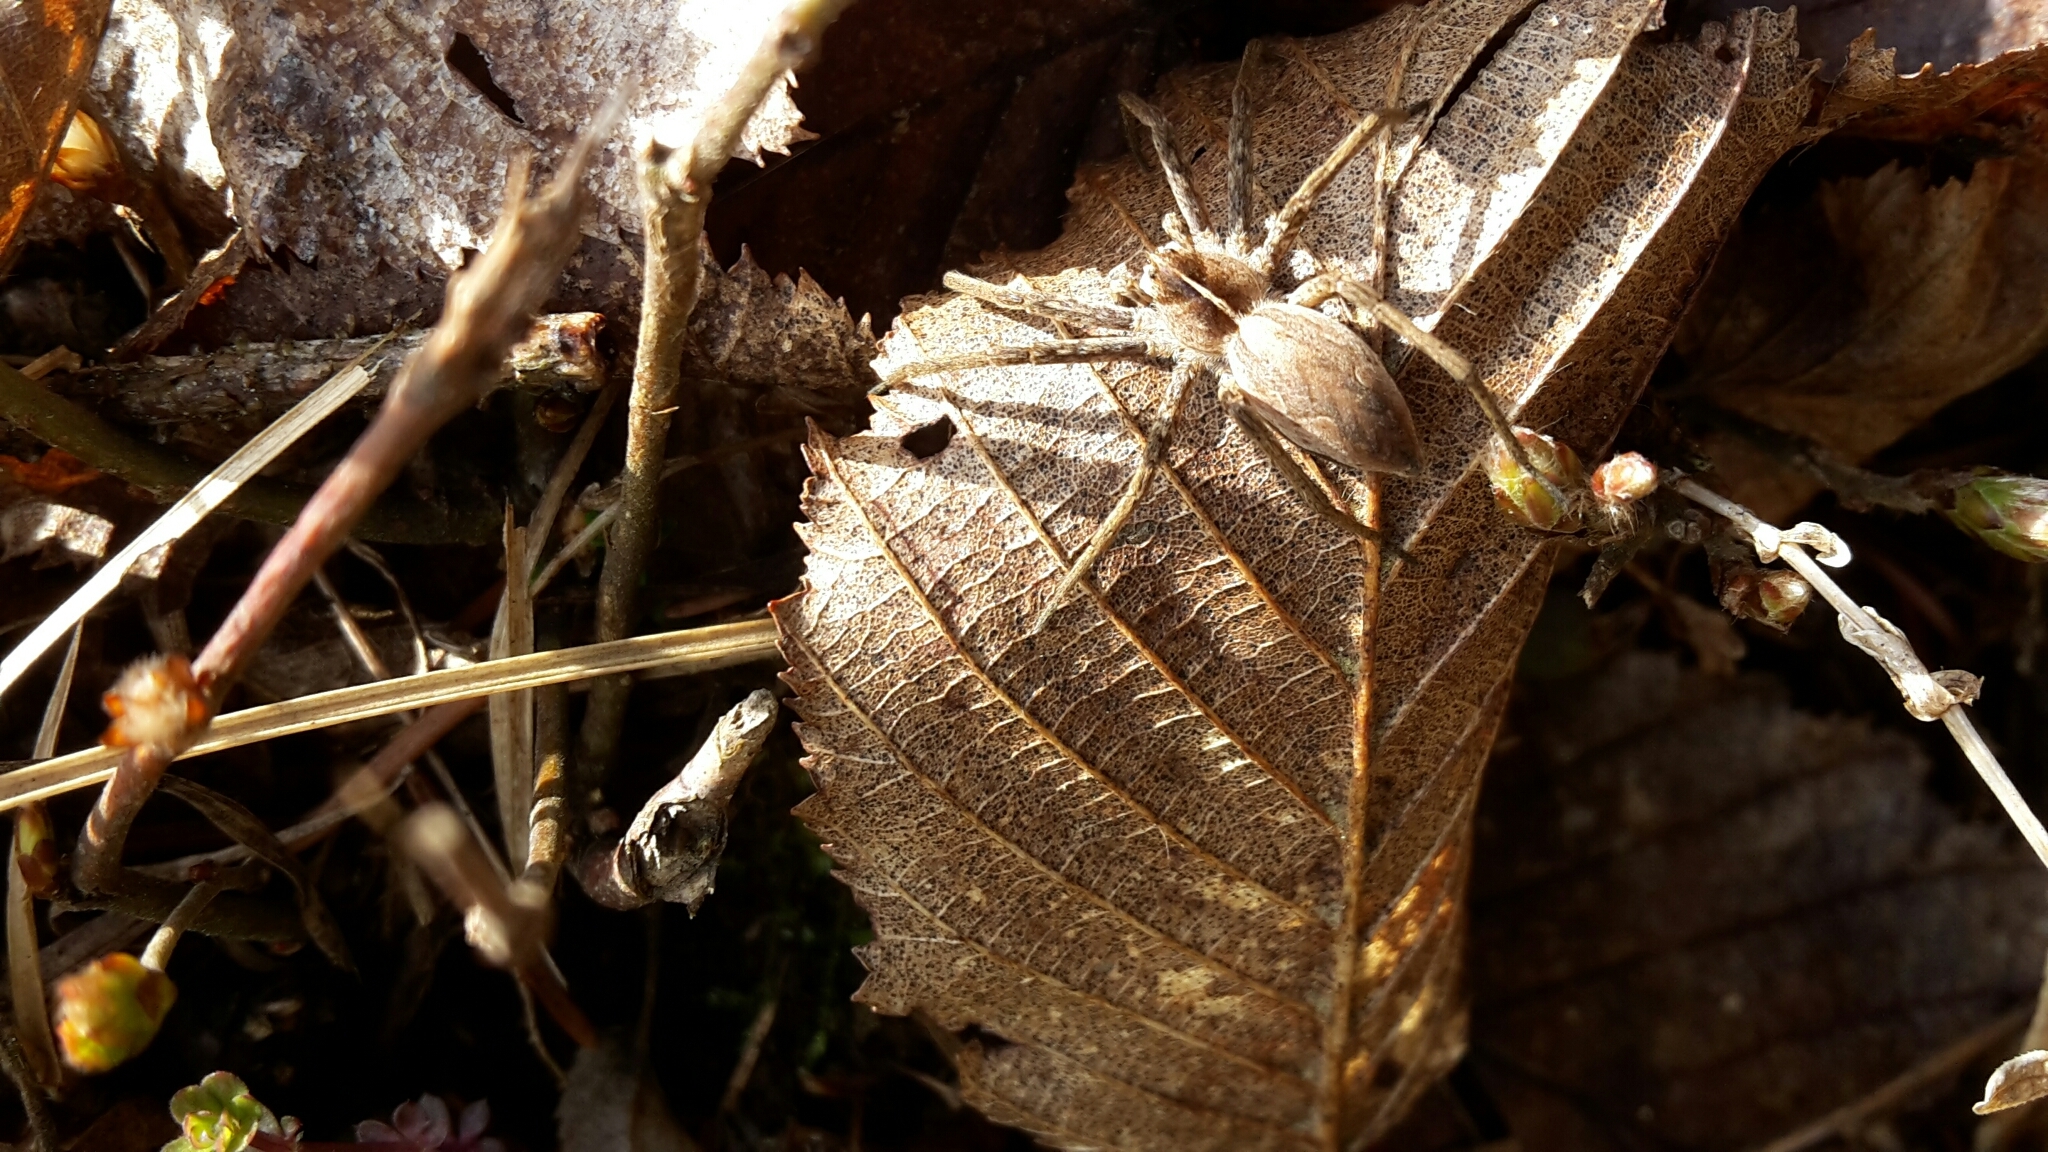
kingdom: Animalia
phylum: Arthropoda
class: Arachnida
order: Araneae
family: Pisauridae
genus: Pisaura
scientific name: Pisaura mirabilis
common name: Tent spider
